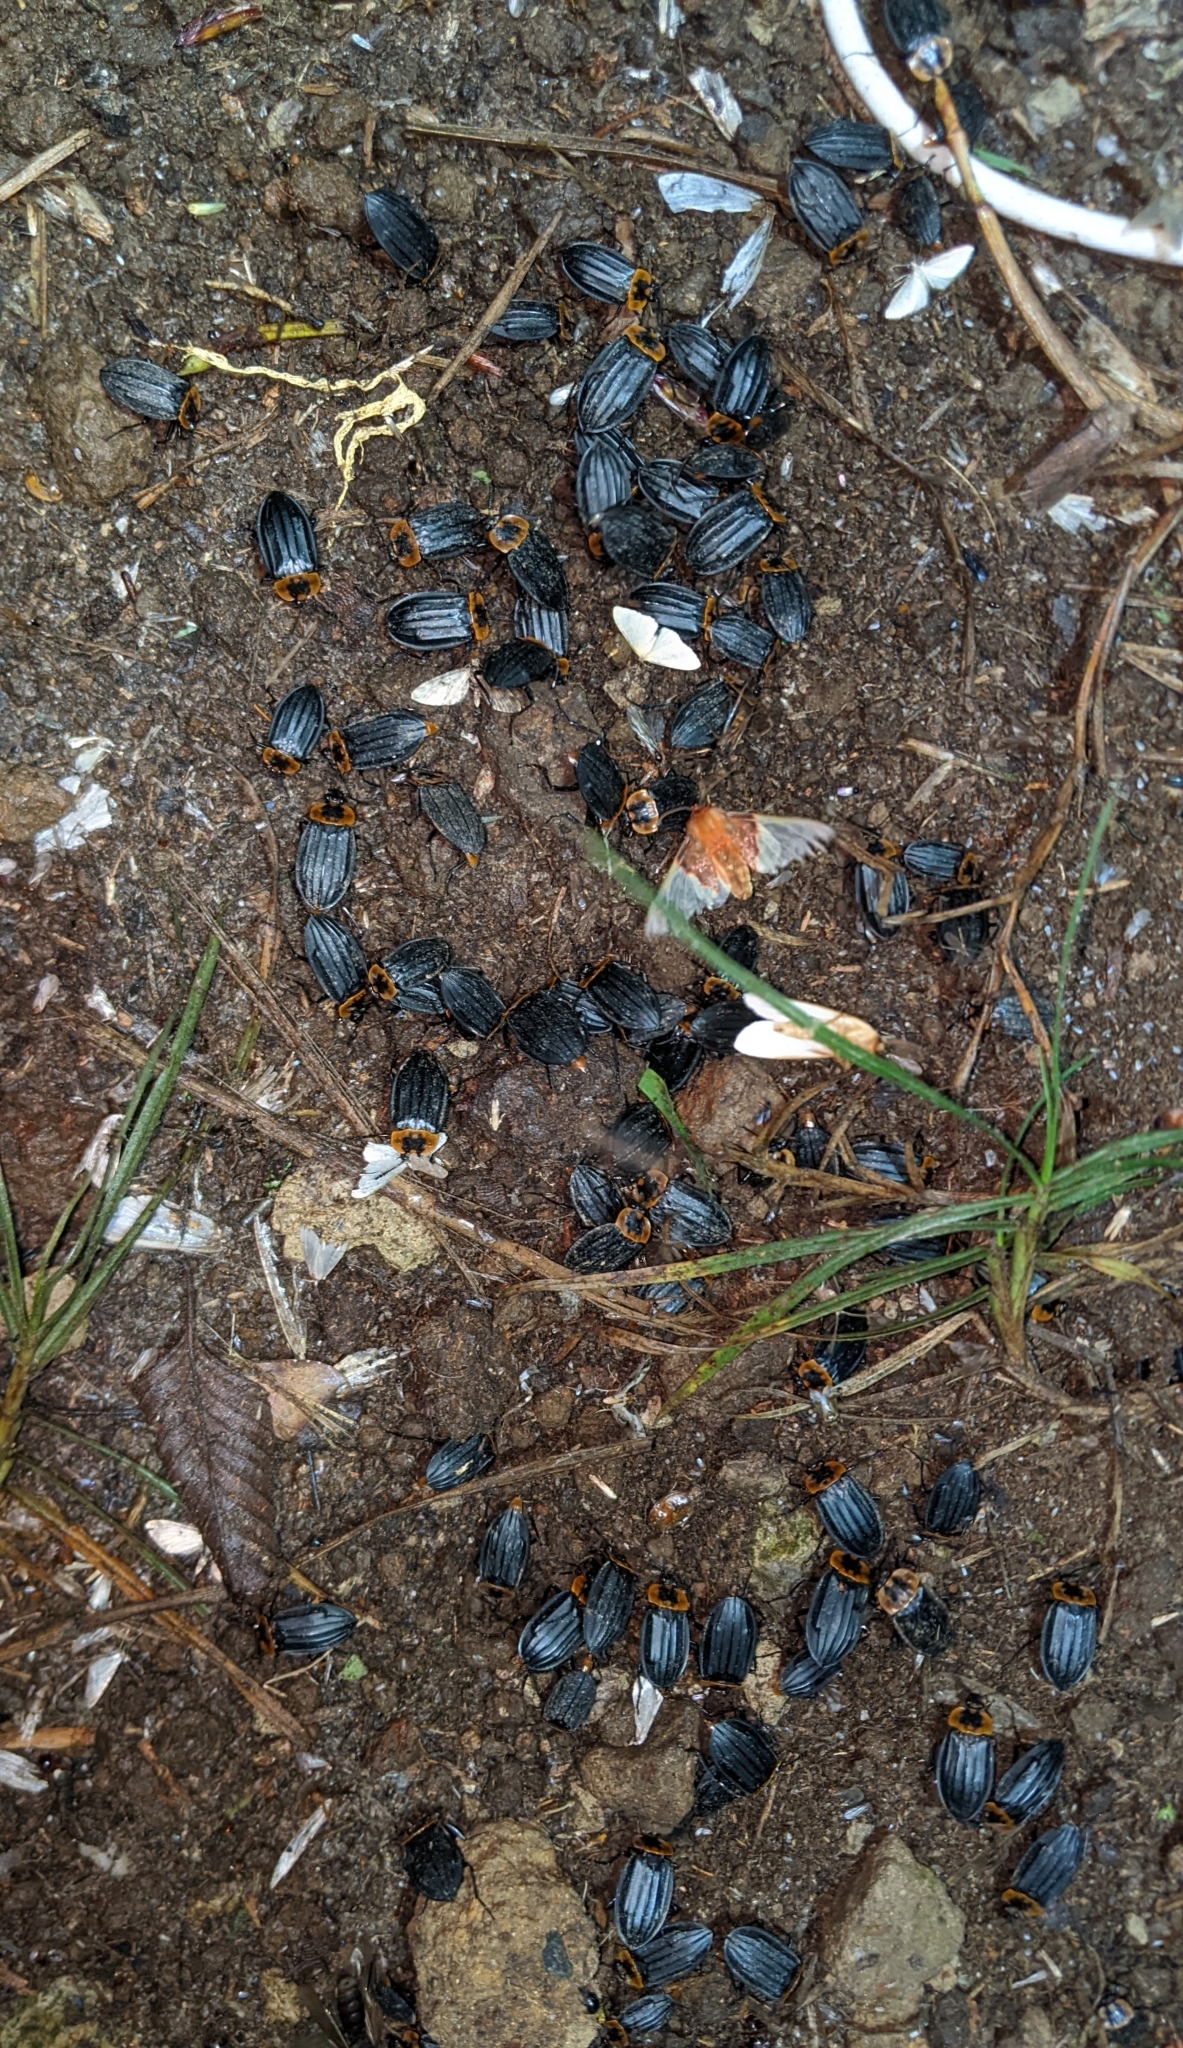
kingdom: Animalia
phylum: Arthropoda
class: Insecta
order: Coleoptera
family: Staphylinidae
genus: Oxelytrum
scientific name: Oxelytrum discicolle
